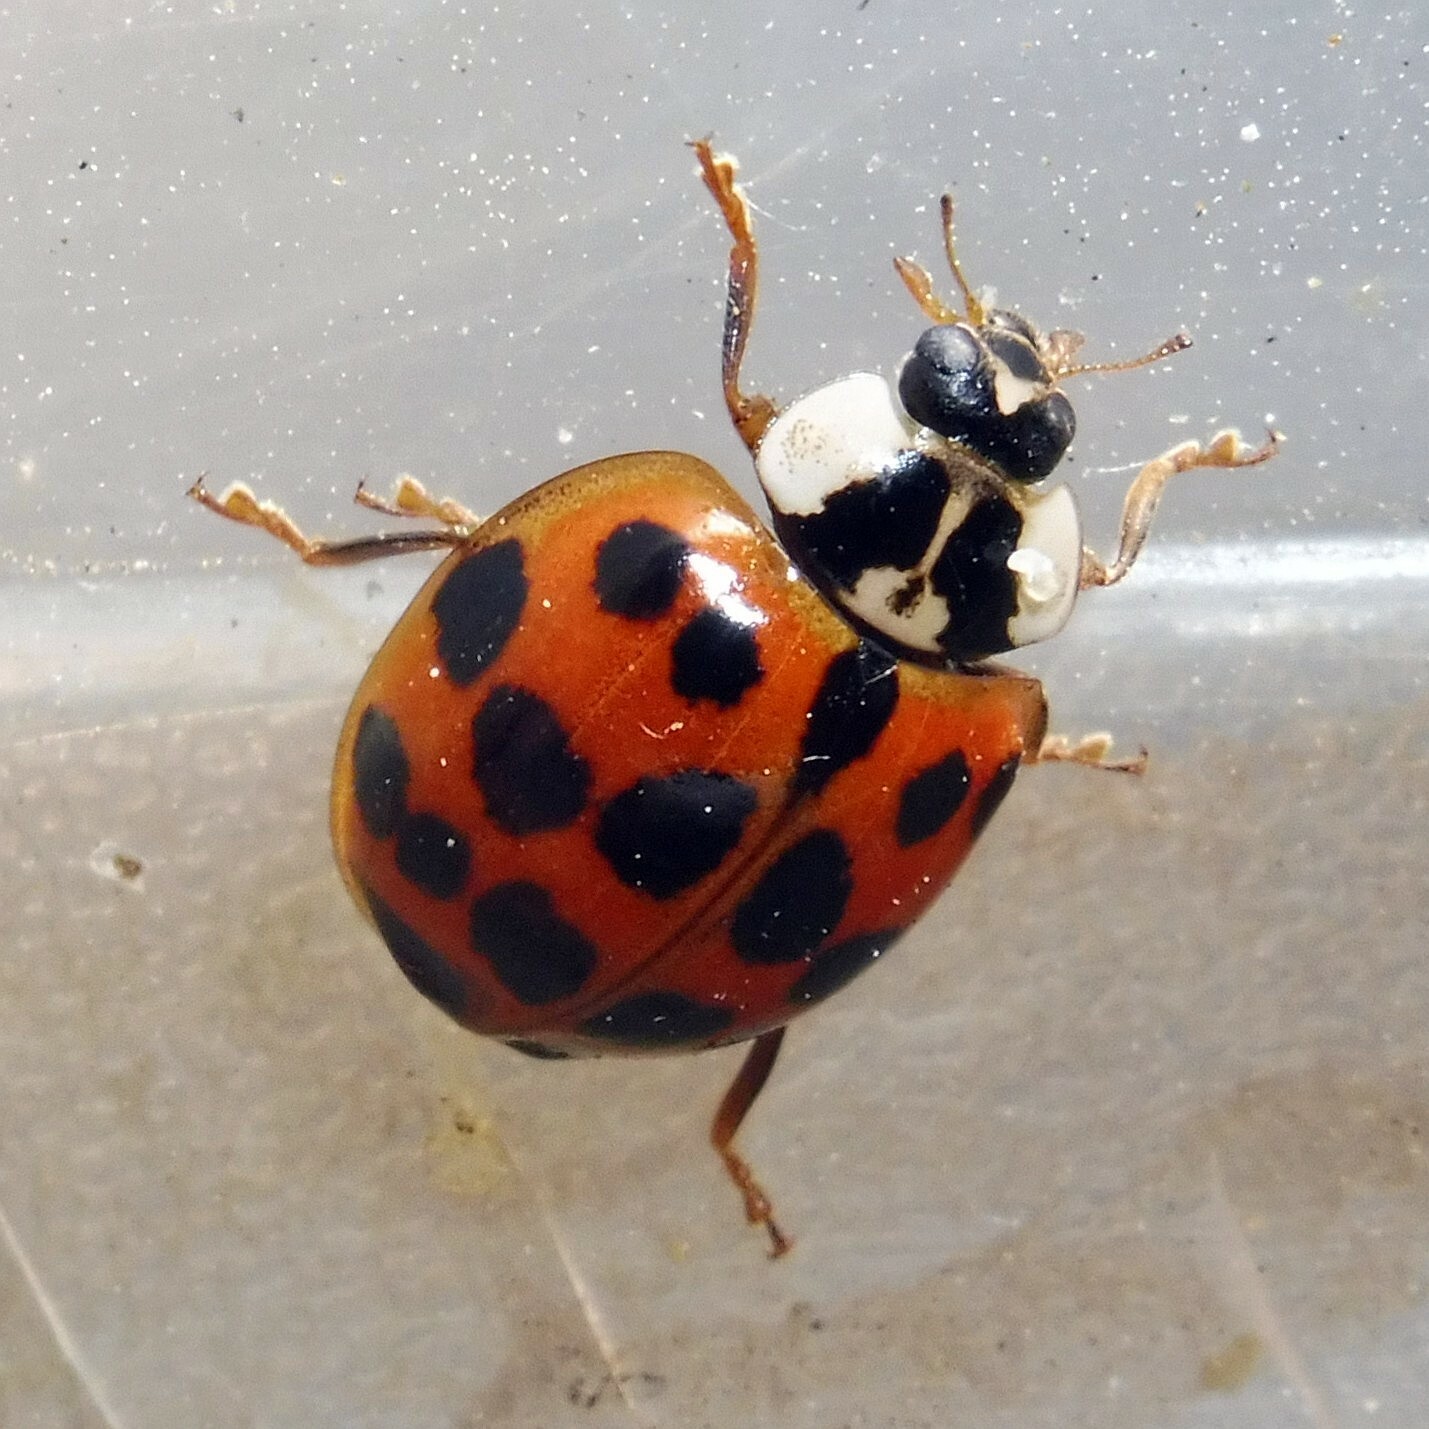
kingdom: Animalia
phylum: Arthropoda
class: Insecta
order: Coleoptera
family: Coccinellidae
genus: Harmonia
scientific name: Harmonia axyridis
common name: Harlequin ladybird
